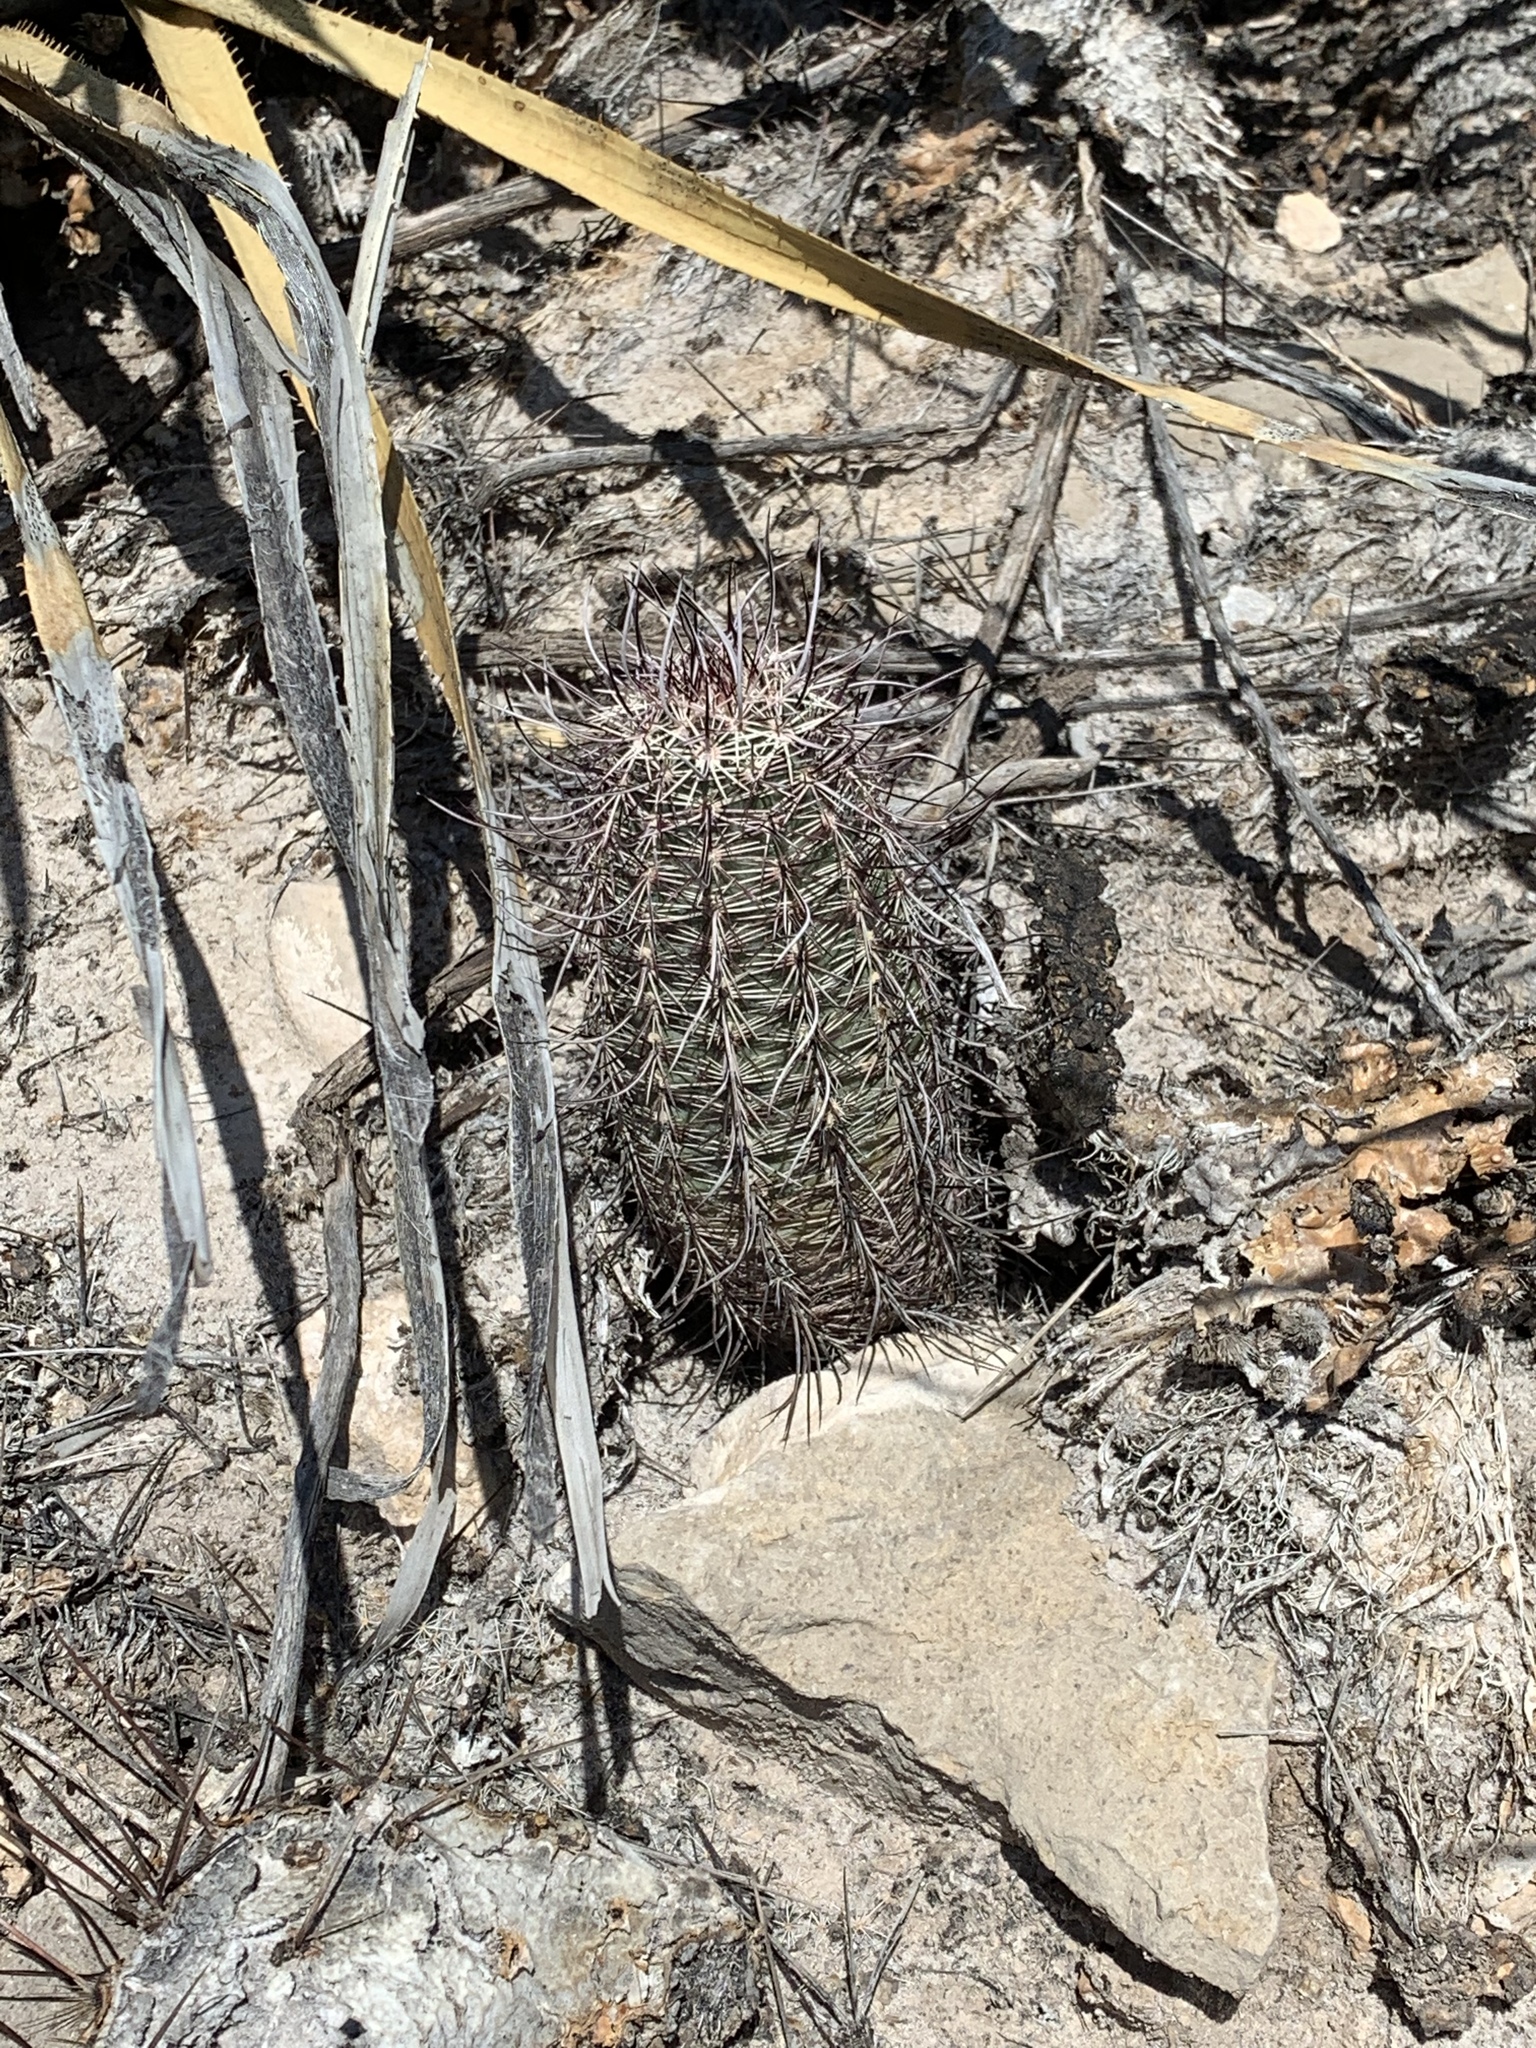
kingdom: Plantae
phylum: Tracheophyta
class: Magnoliopsida
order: Caryophyllales
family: Cactaceae
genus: Echinocereus
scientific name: Echinocereus viridiflorus
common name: Nylon hedgehog cactus
